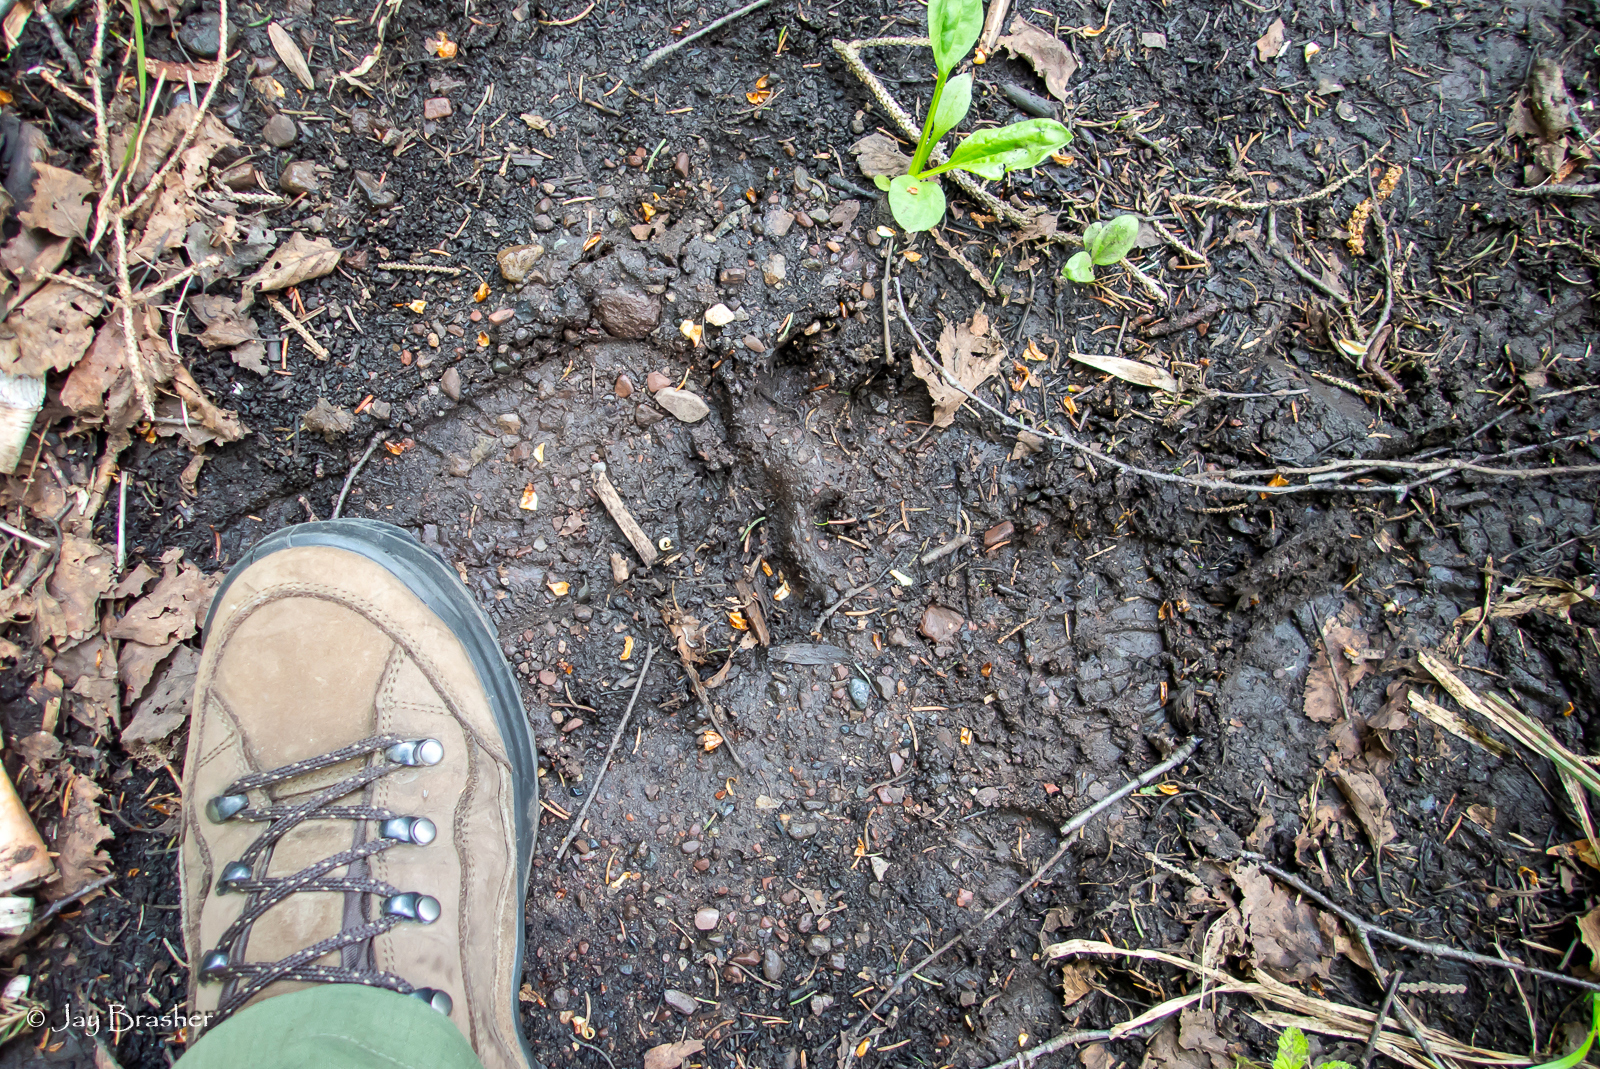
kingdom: Animalia
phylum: Chordata
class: Mammalia
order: Carnivora
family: Canidae
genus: Canis
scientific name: Canis lupus
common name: Gray wolf
